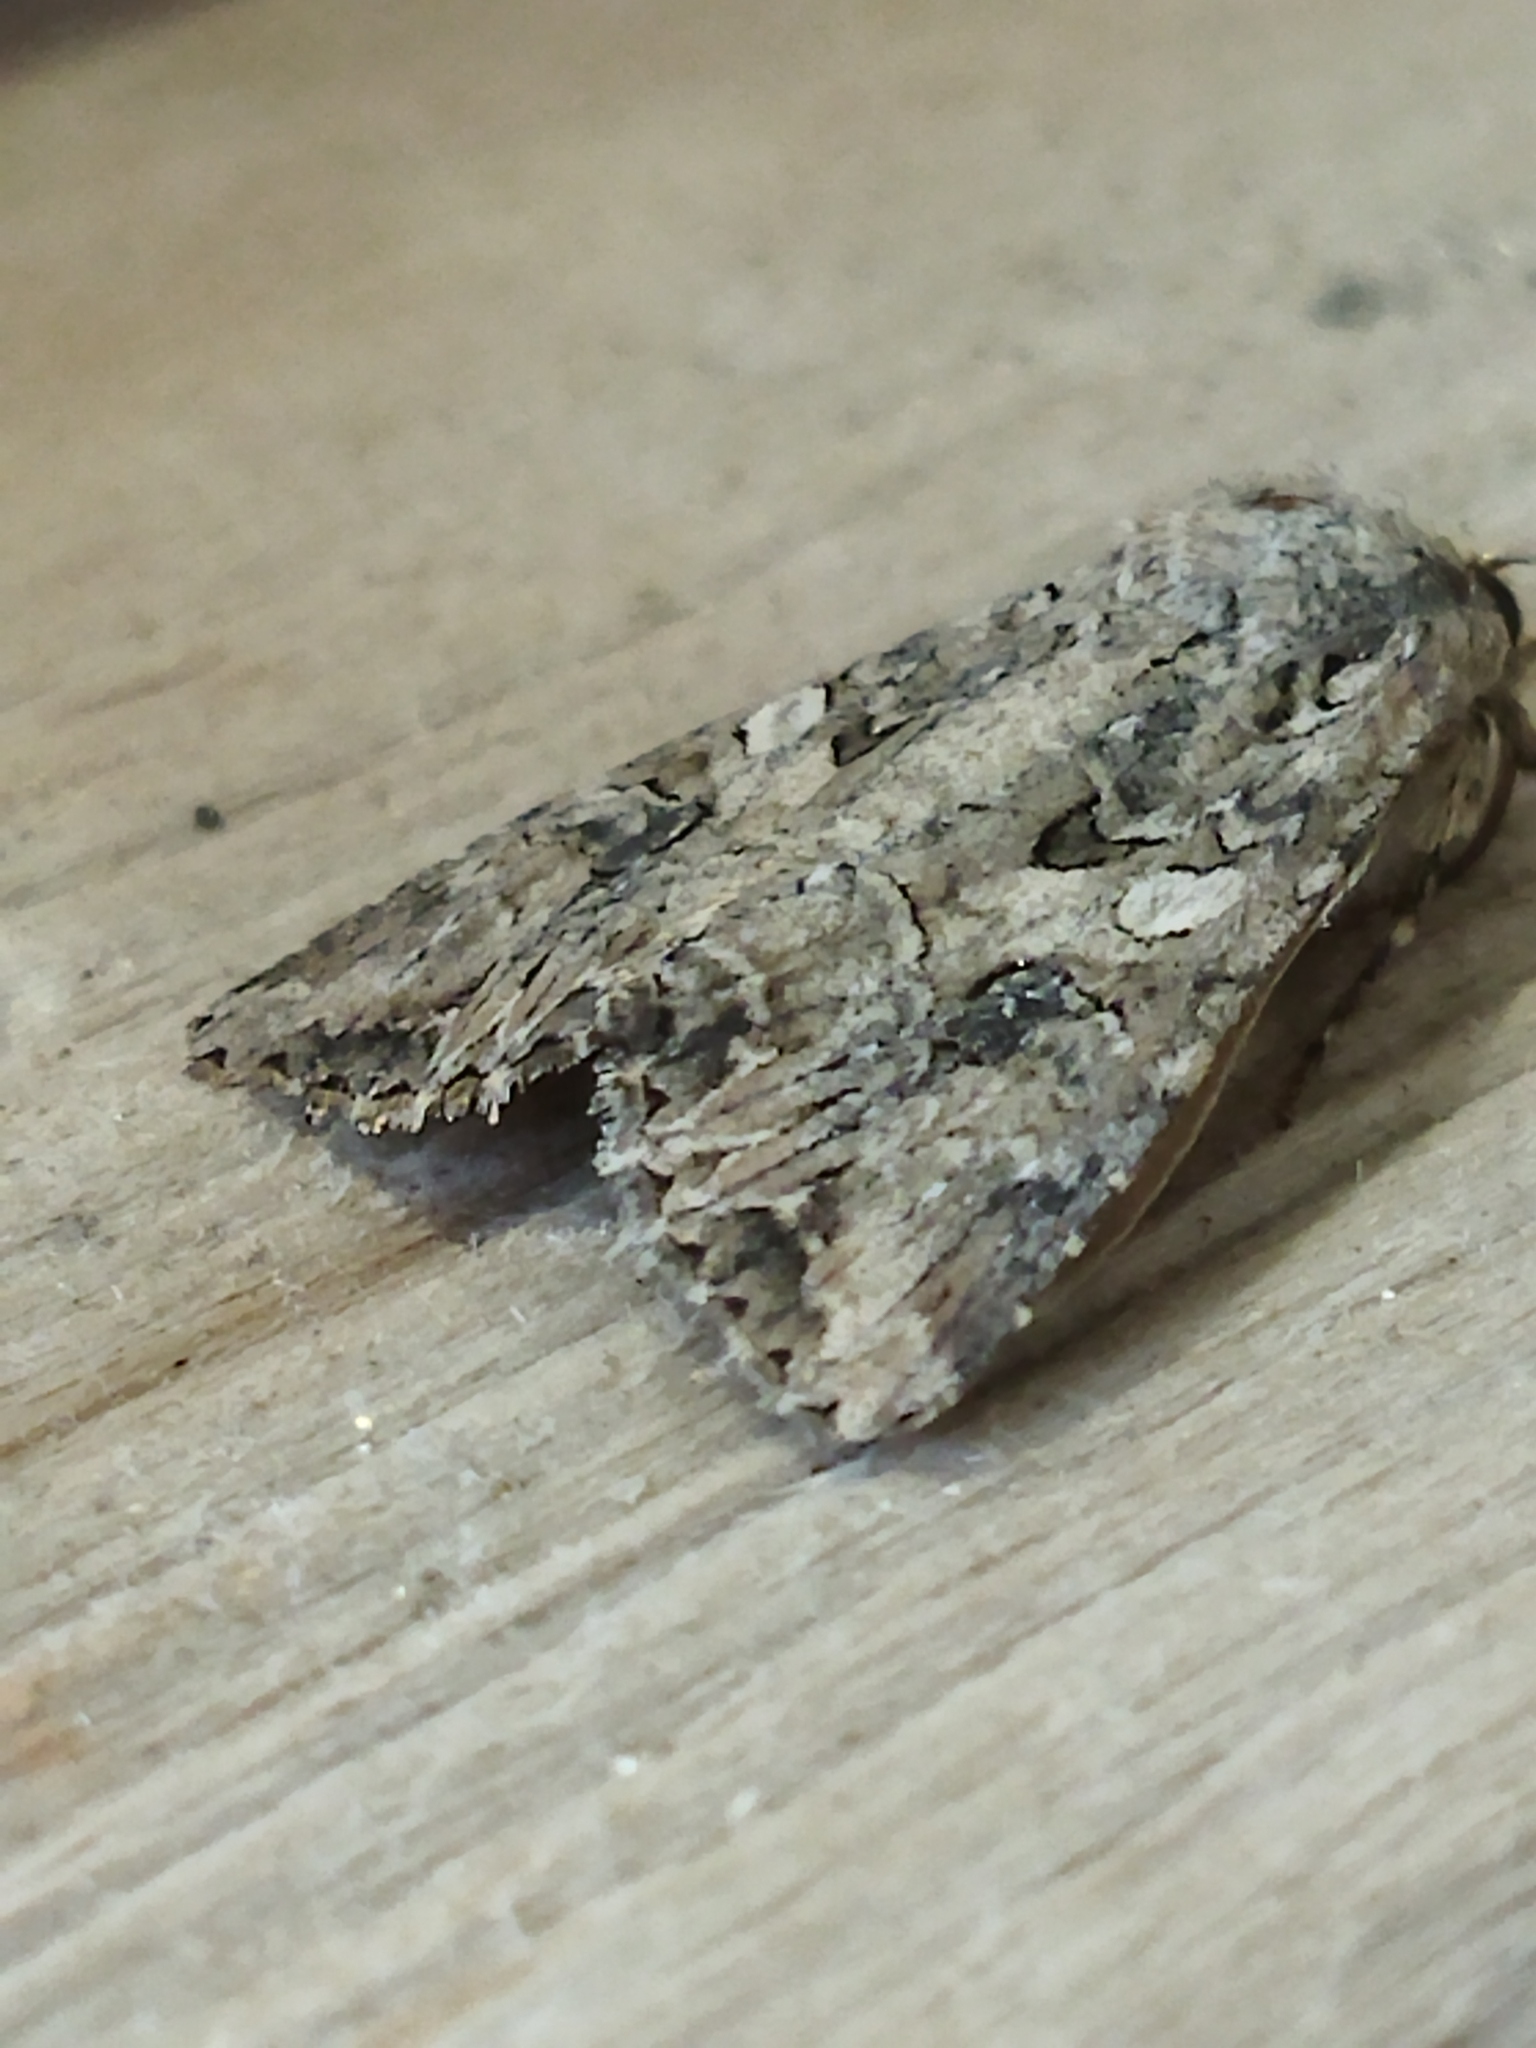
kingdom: Animalia
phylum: Arthropoda
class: Insecta
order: Lepidoptera
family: Noctuidae
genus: Anarta
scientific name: Anarta trifolii
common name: Clover cutworm moth
